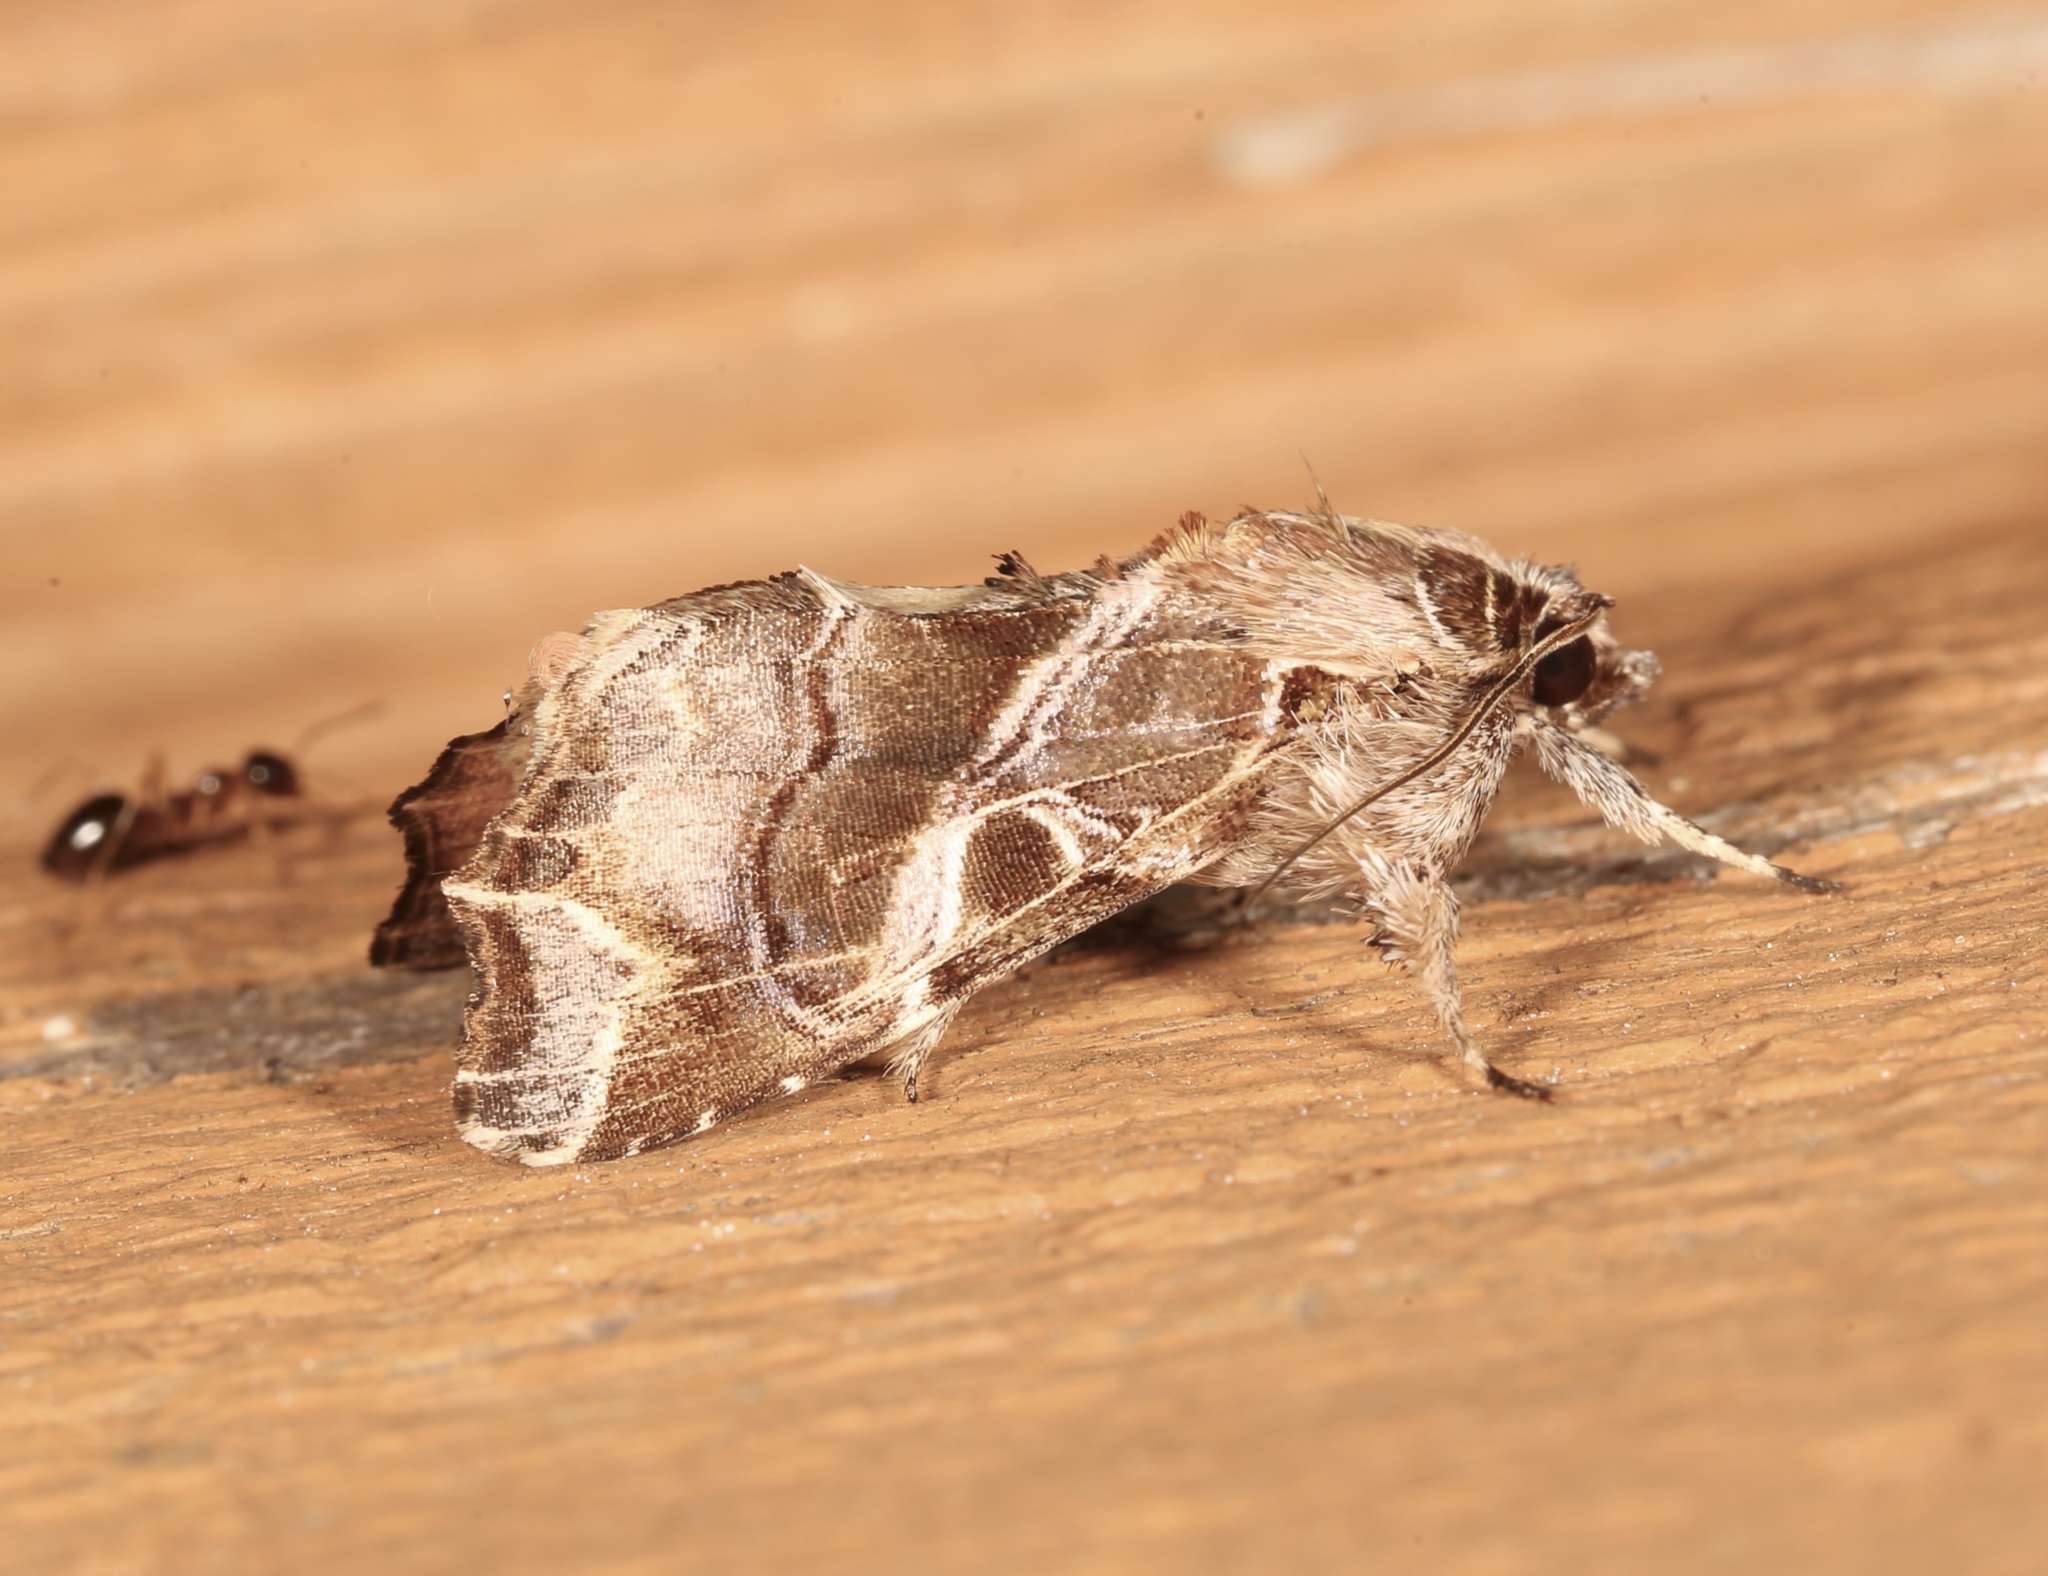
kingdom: Animalia
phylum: Arthropoda
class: Insecta
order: Lepidoptera
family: Noctuidae
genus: Callopistria
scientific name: Callopistria floridensis
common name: Florida fern moth
